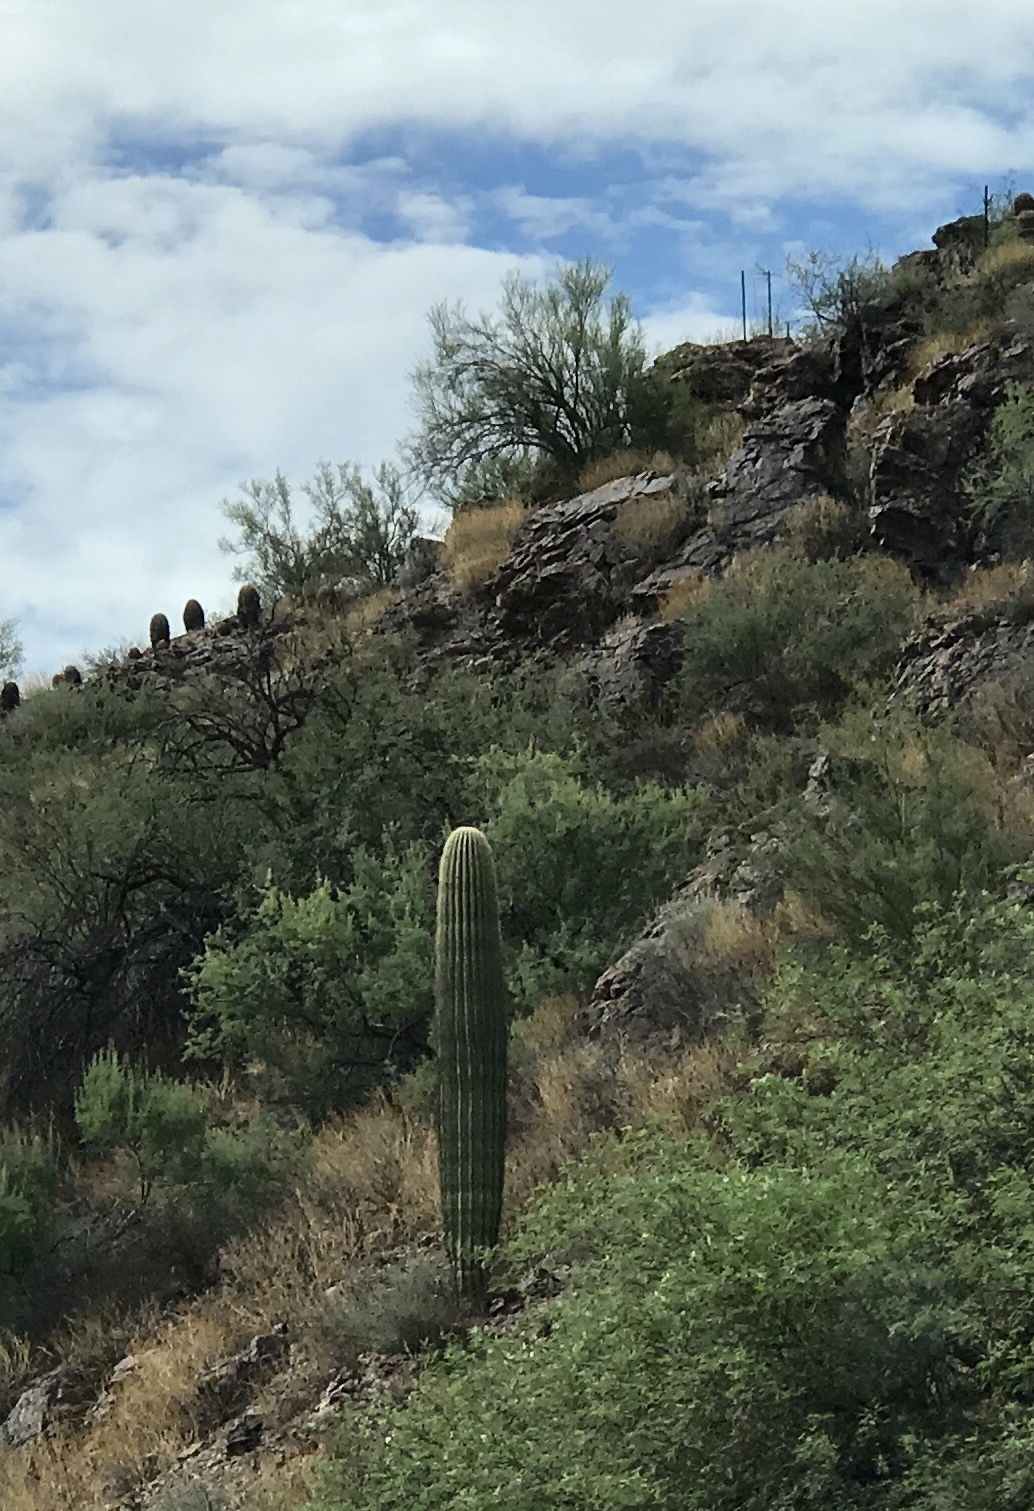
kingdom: Plantae
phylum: Tracheophyta
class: Magnoliopsida
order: Caryophyllales
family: Cactaceae
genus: Carnegiea
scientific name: Carnegiea gigantea
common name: Saguaro
